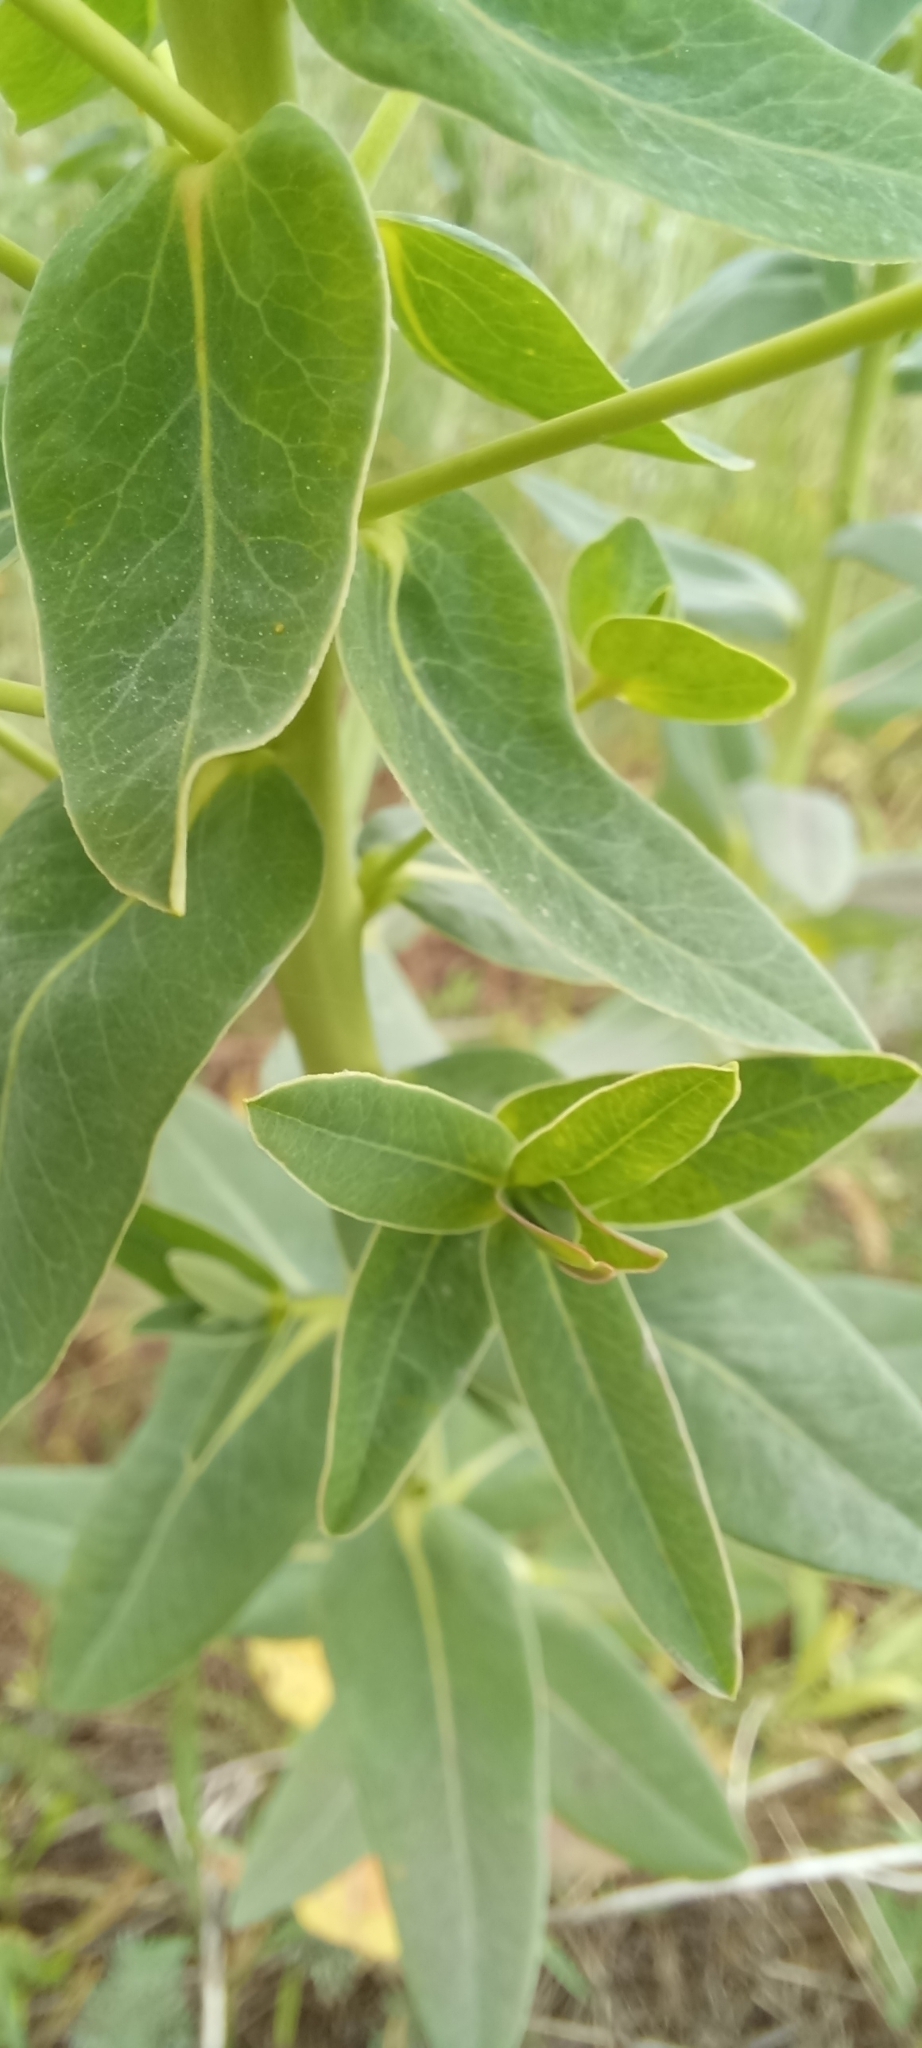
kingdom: Plantae
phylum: Tracheophyta
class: Magnoliopsida
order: Malpighiales
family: Euphorbiaceae
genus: Euphorbia
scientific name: Euphorbia iberica
